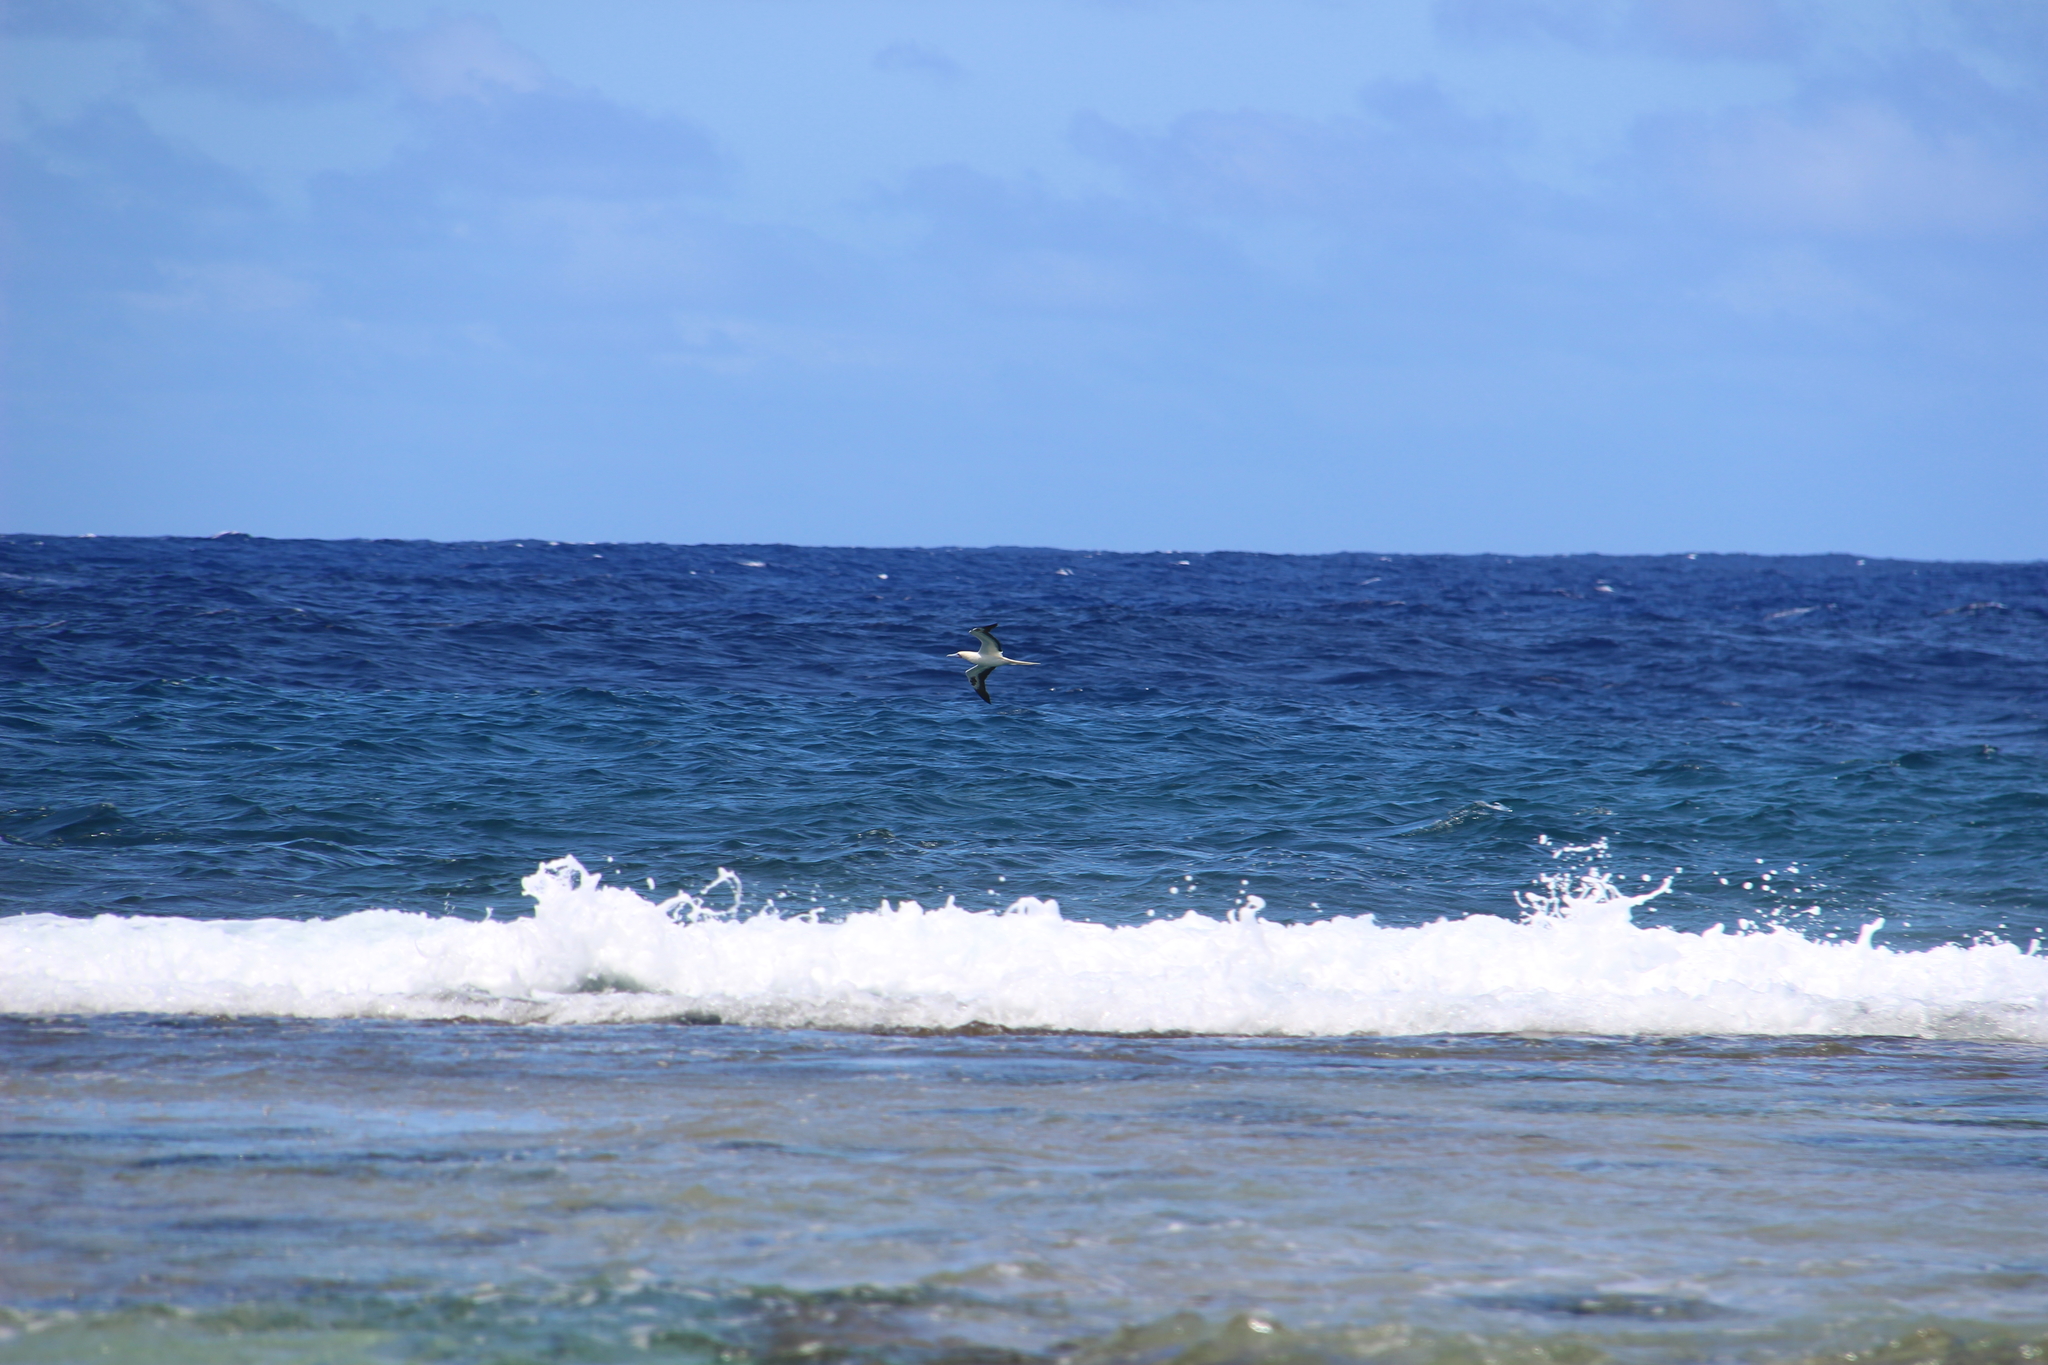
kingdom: Animalia
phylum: Chordata
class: Aves
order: Suliformes
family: Sulidae
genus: Sula
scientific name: Sula sula
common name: Red-footed booby
